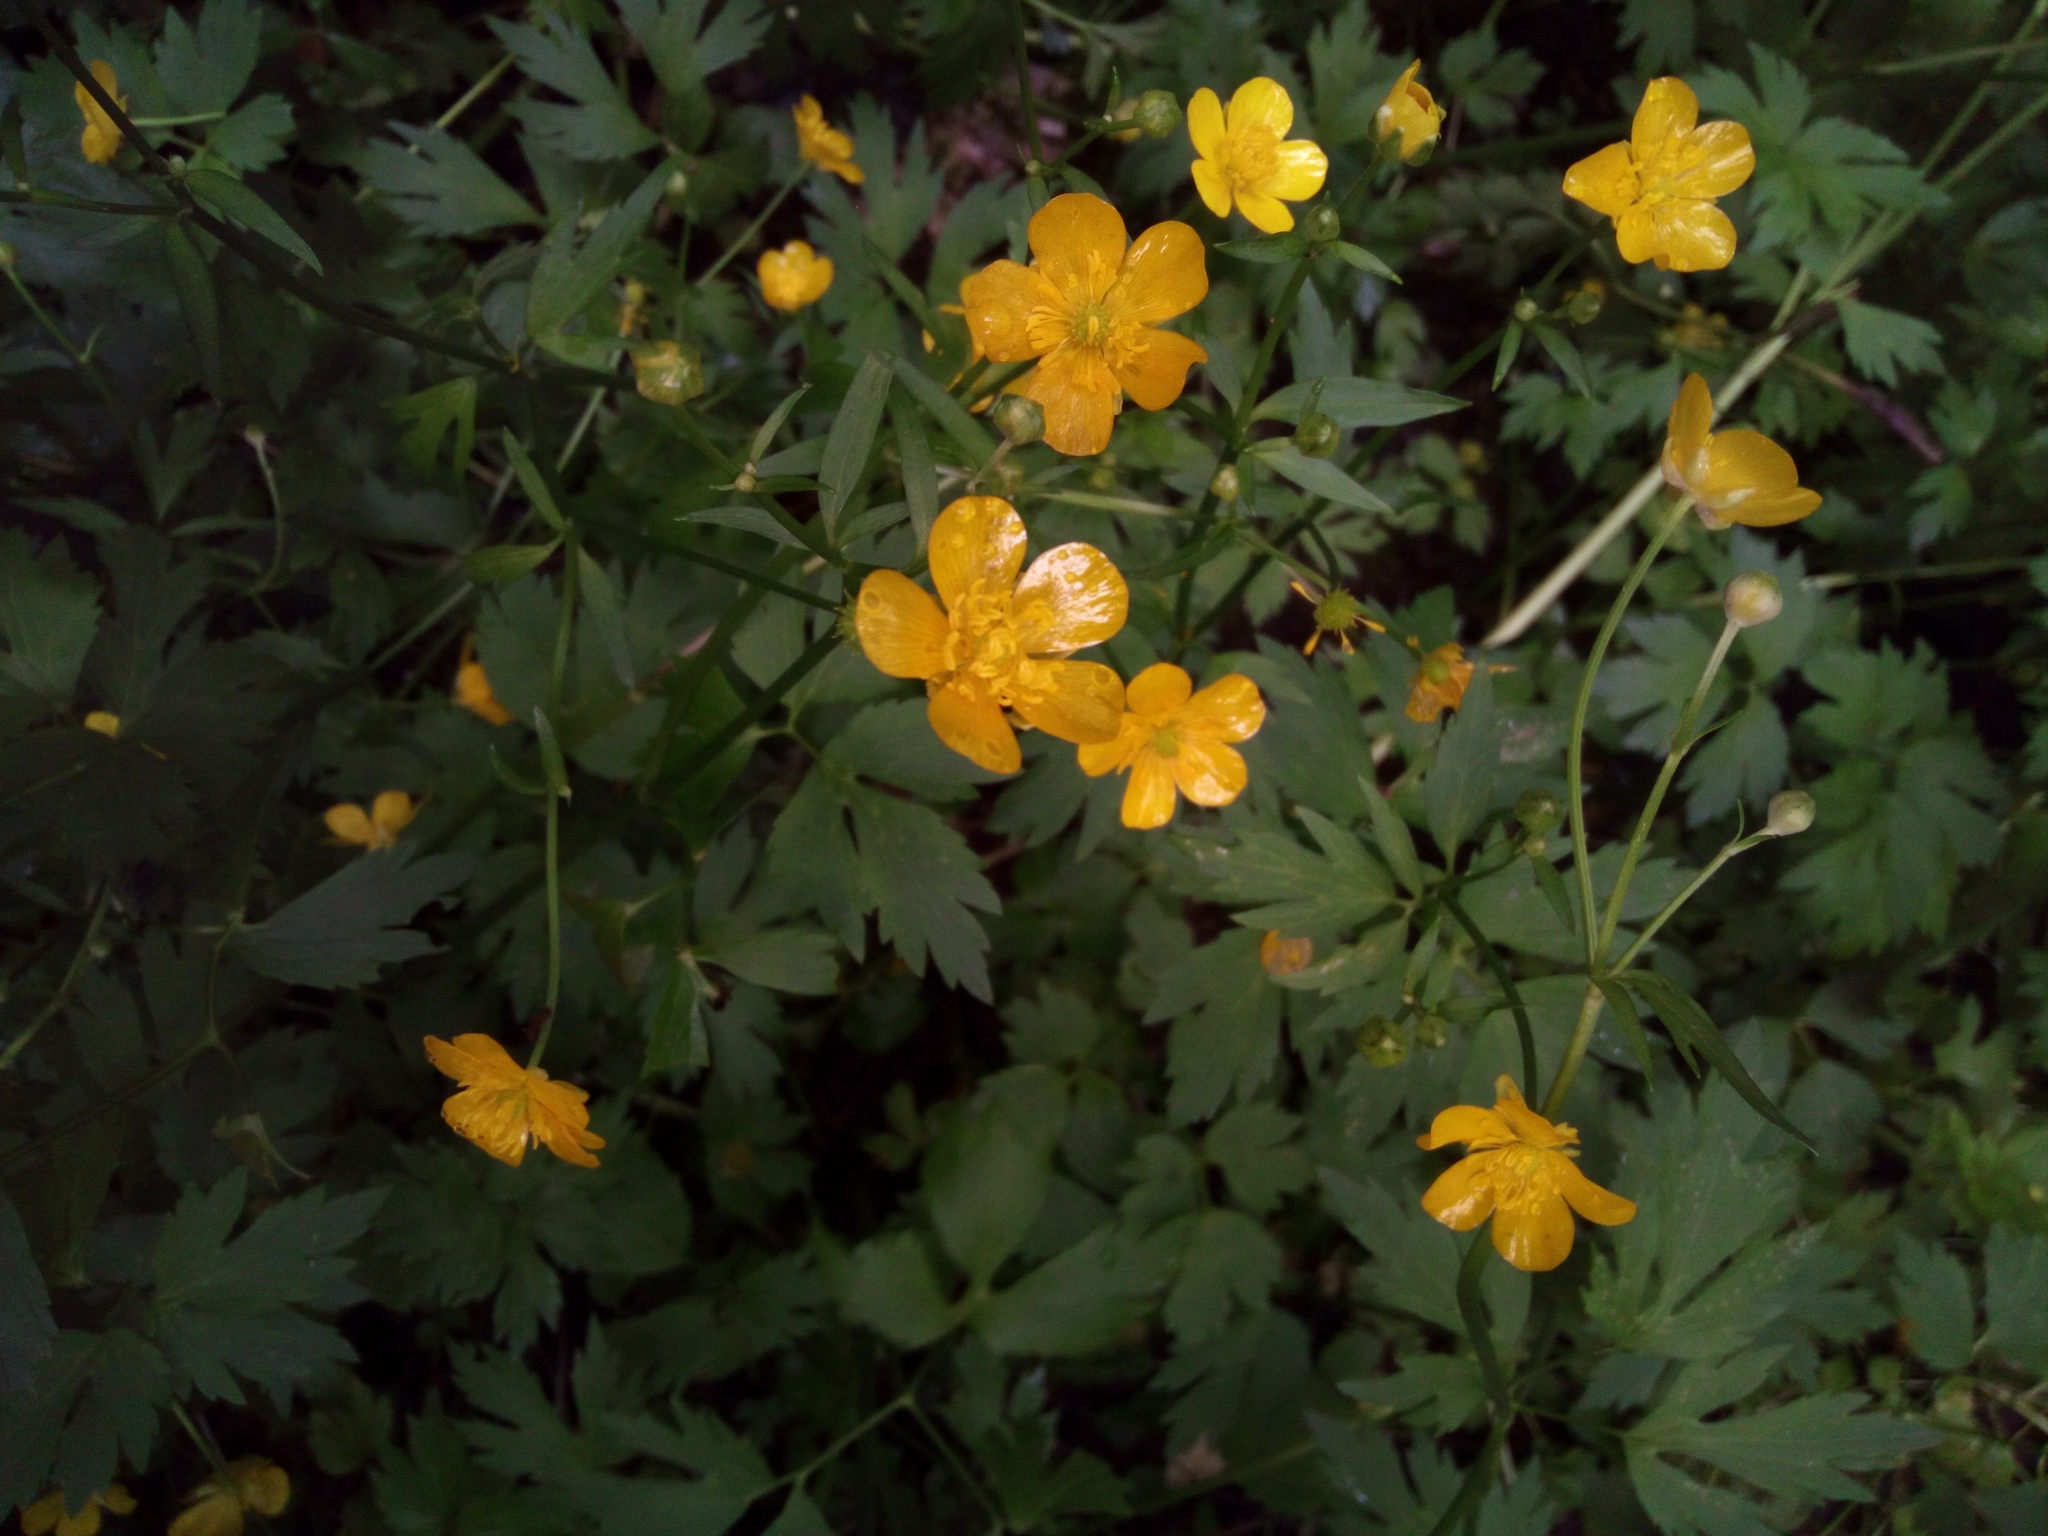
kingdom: Plantae
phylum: Tracheophyta
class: Magnoliopsida
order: Ranunculales
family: Ranunculaceae
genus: Ranunculus
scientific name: Ranunculus repens
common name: Creeping buttercup
